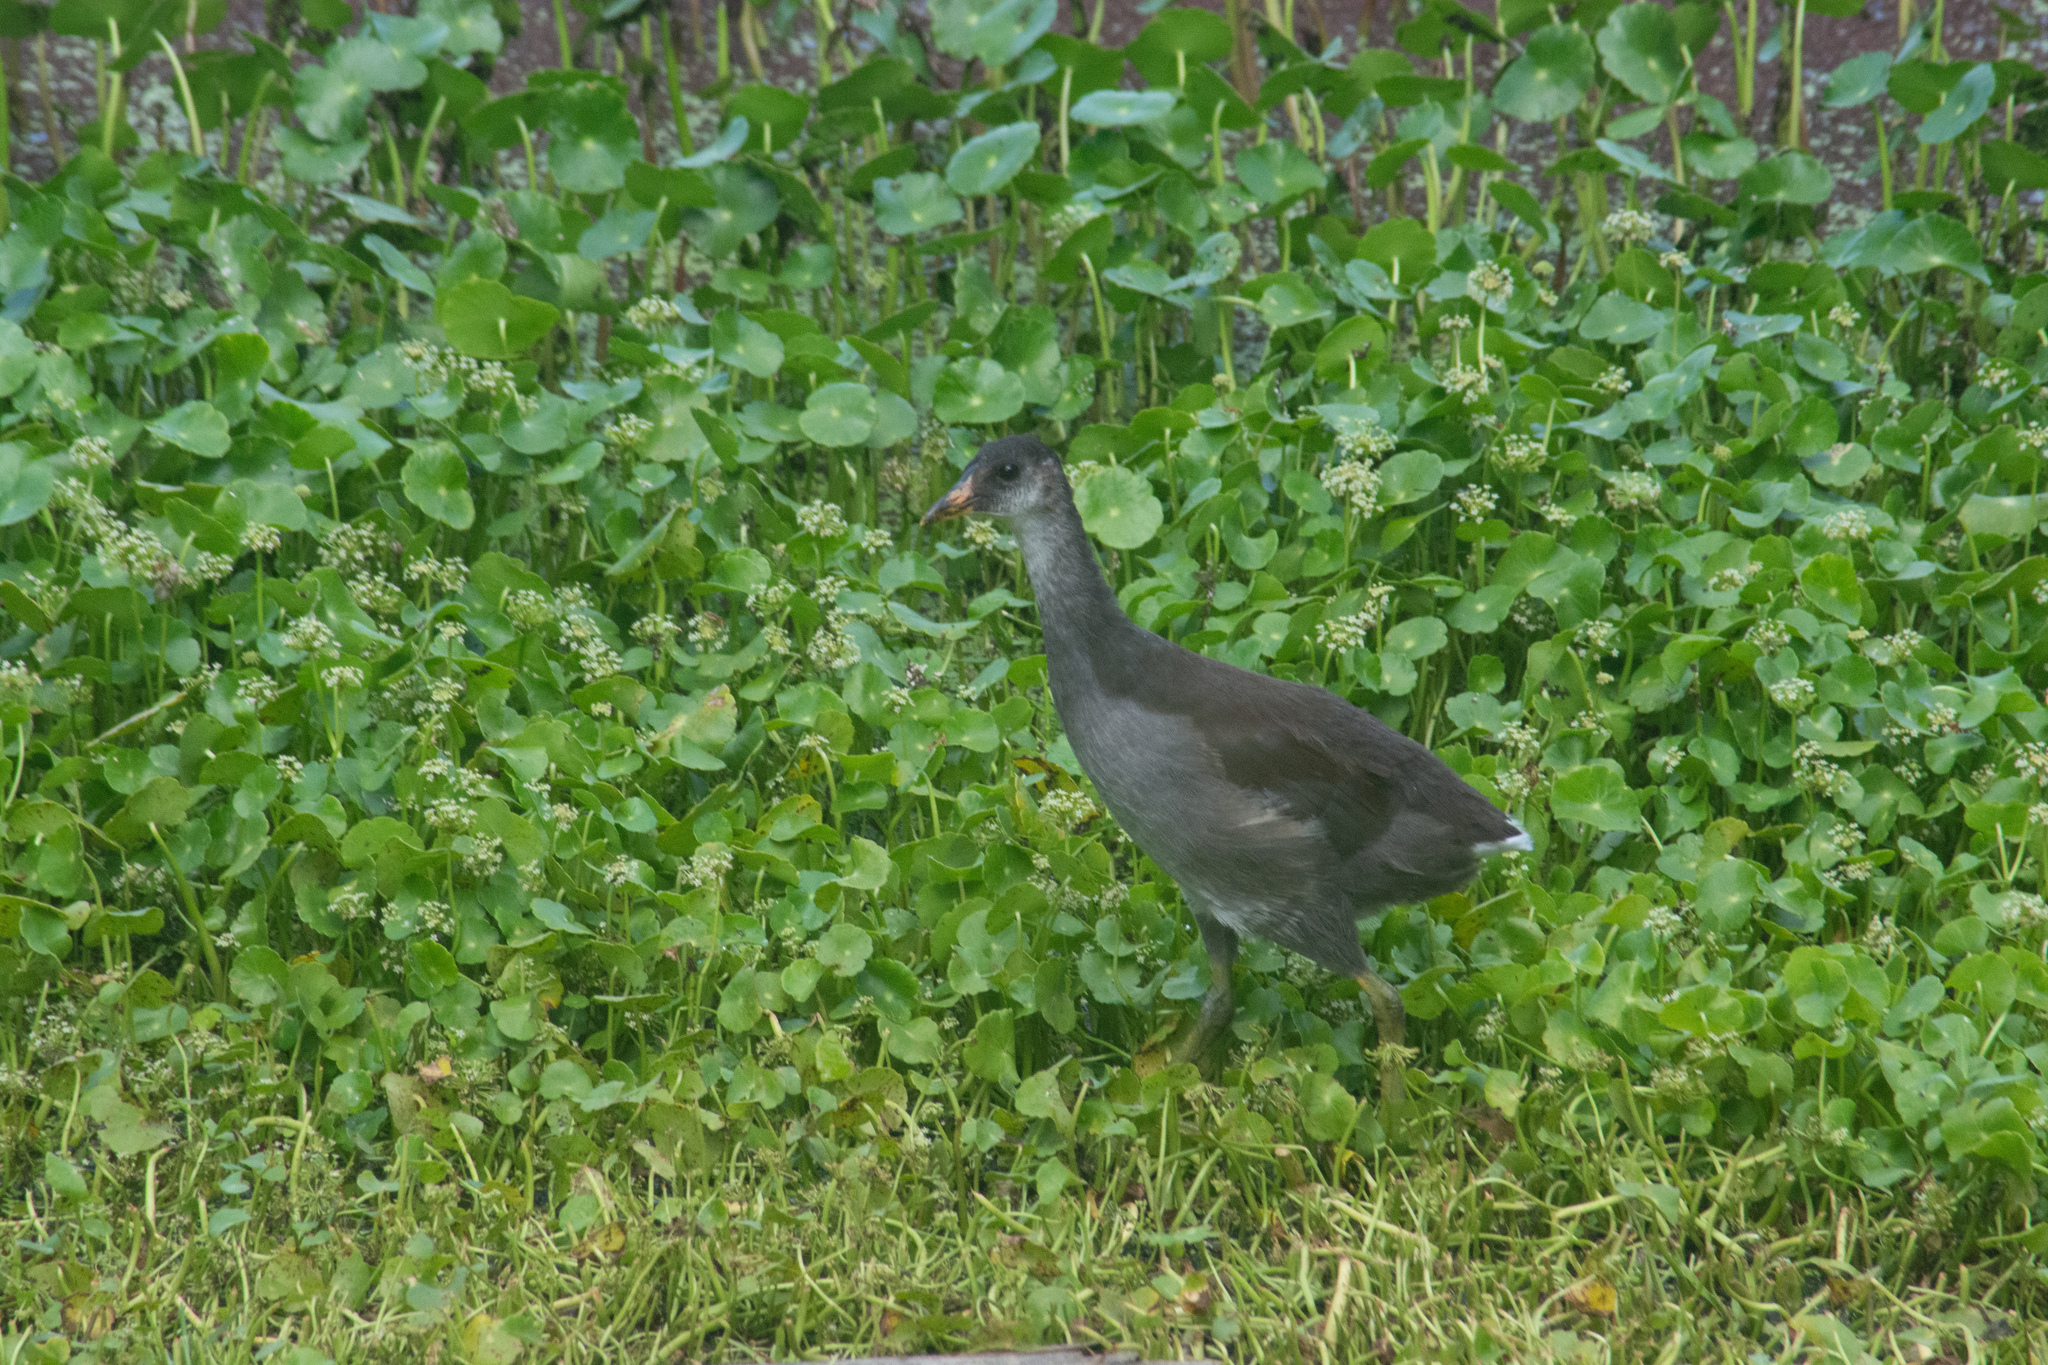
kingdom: Animalia
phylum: Chordata
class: Aves
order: Gruiformes
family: Rallidae
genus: Gallinula
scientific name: Gallinula chloropus
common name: Common moorhen
